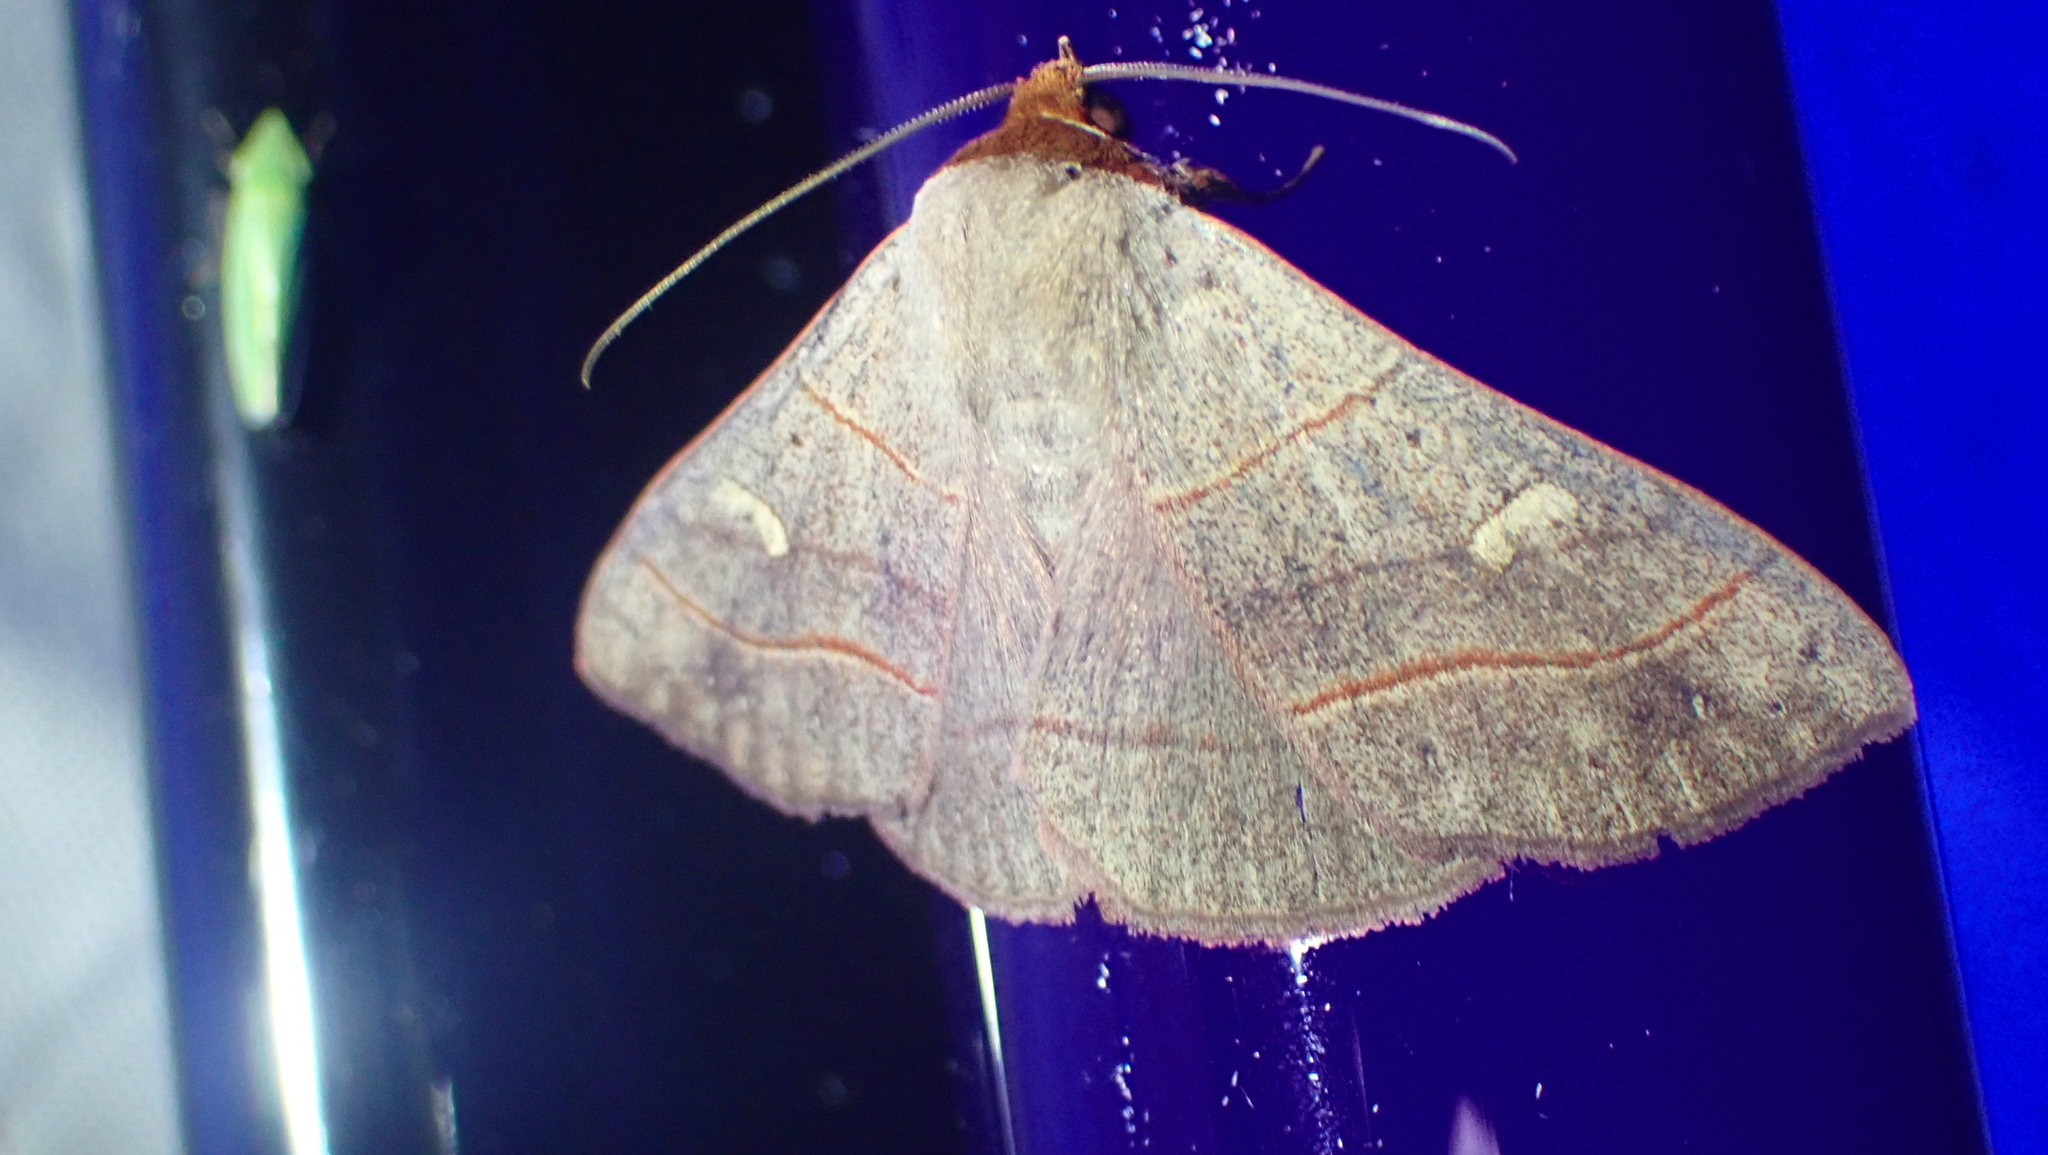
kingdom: Animalia
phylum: Arthropoda
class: Insecta
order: Lepidoptera
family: Erebidae
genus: Panopoda
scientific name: Panopoda rufimargo
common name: Red-lined panopoda moth
